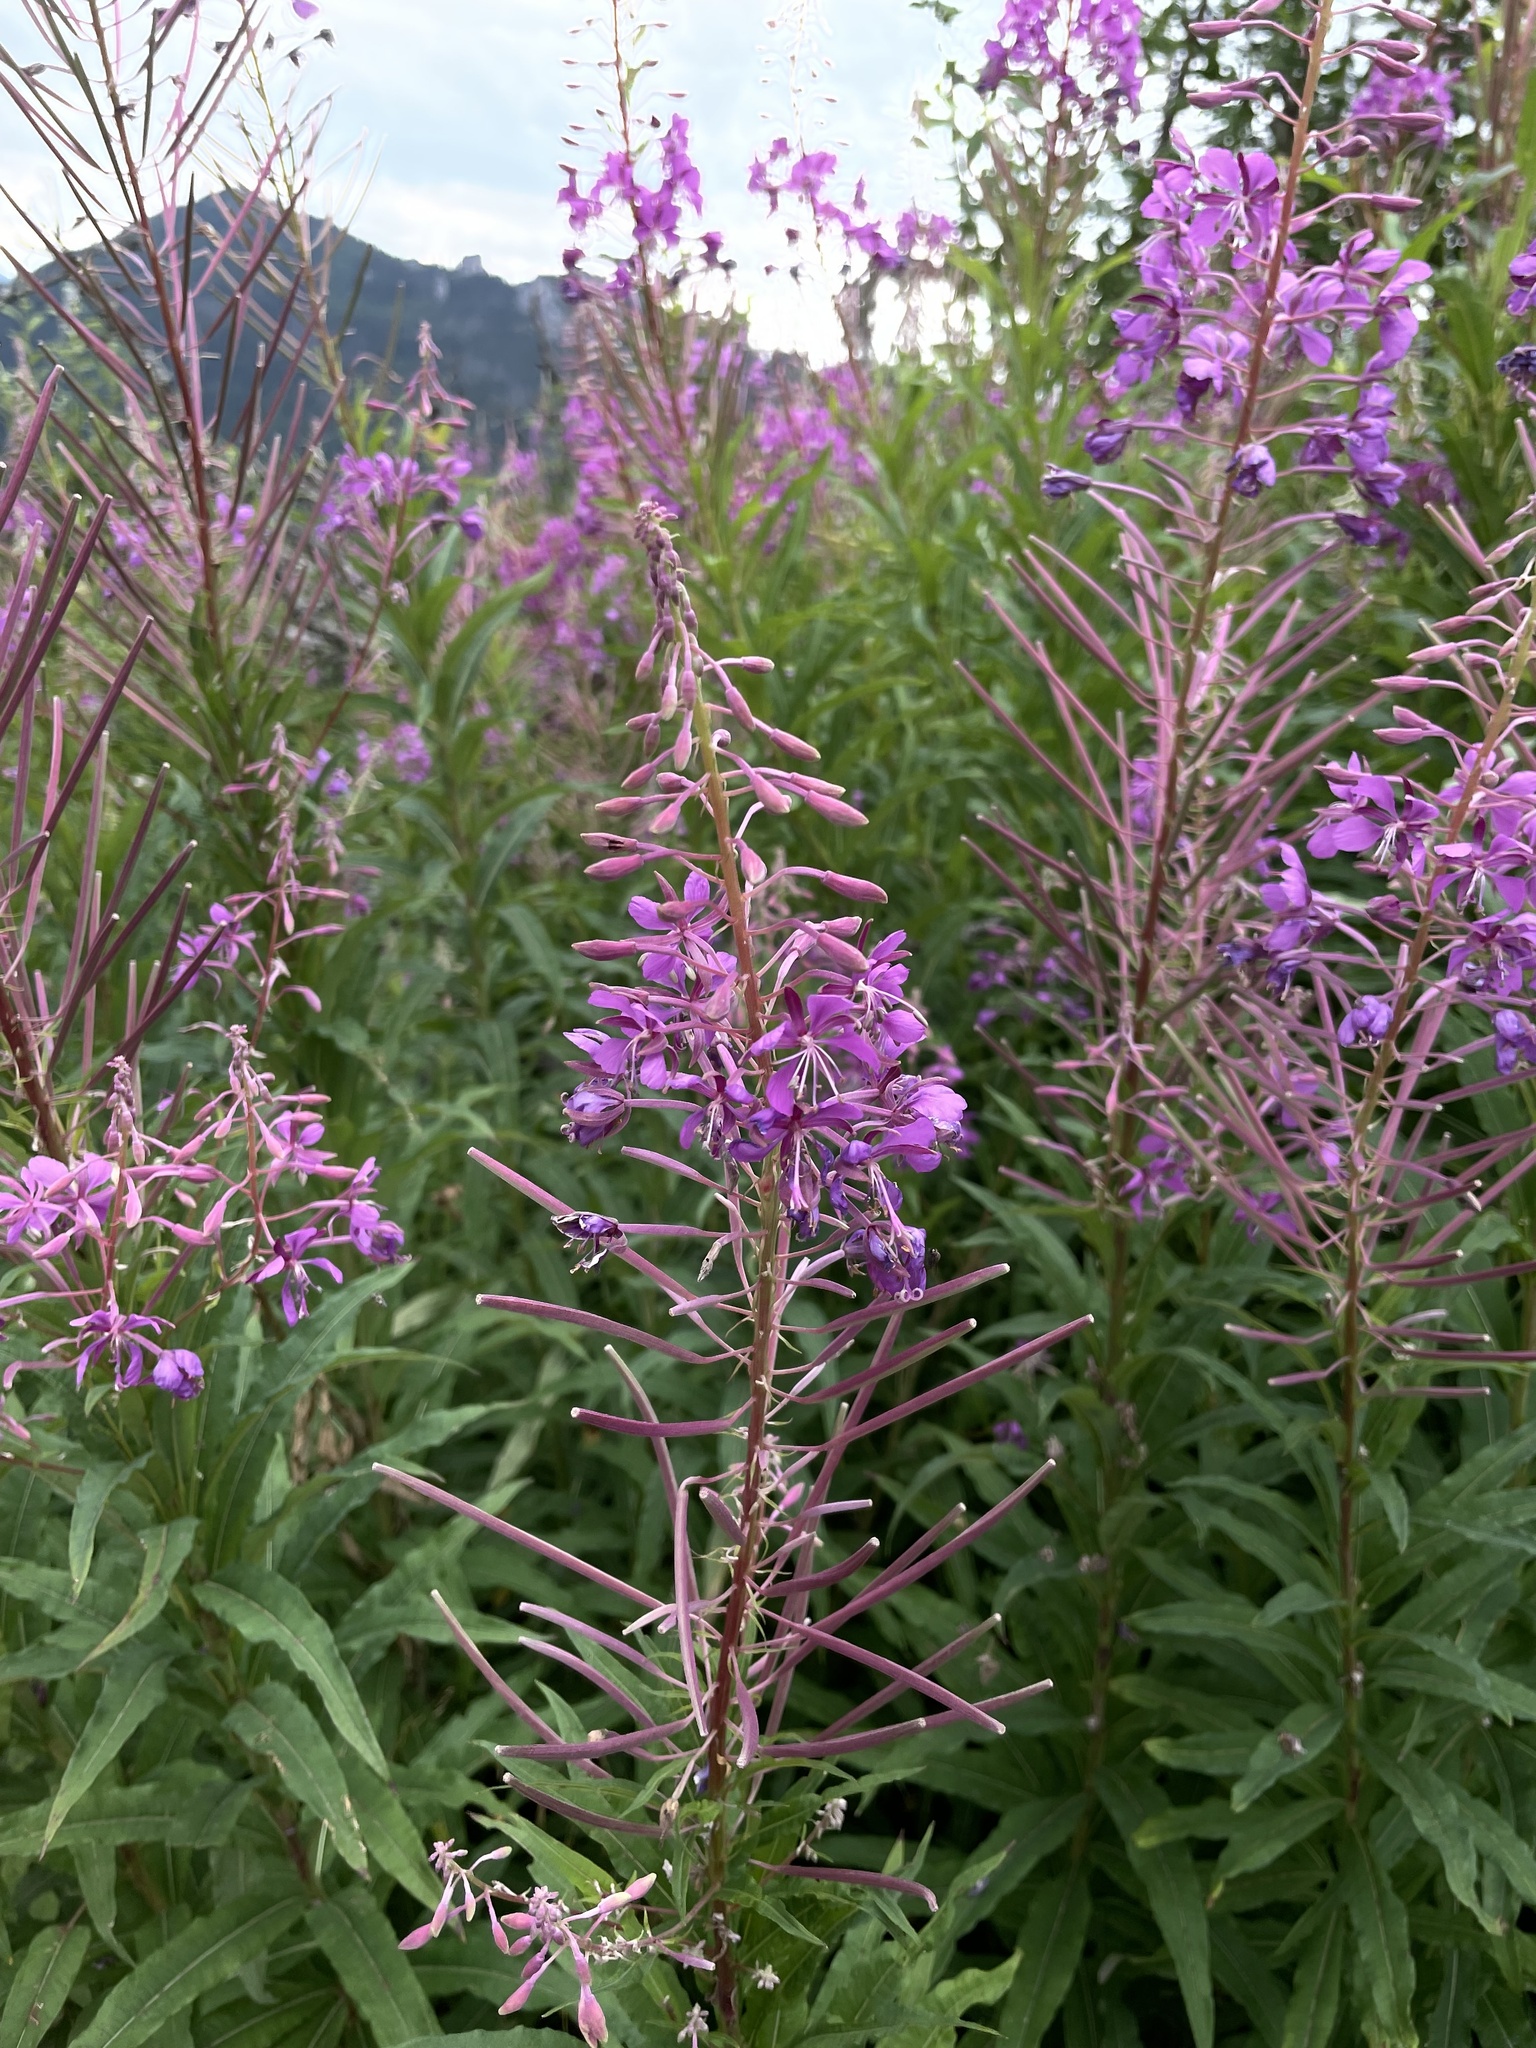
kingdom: Plantae
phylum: Tracheophyta
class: Magnoliopsida
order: Myrtales
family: Onagraceae
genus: Chamaenerion
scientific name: Chamaenerion angustifolium
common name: Fireweed
